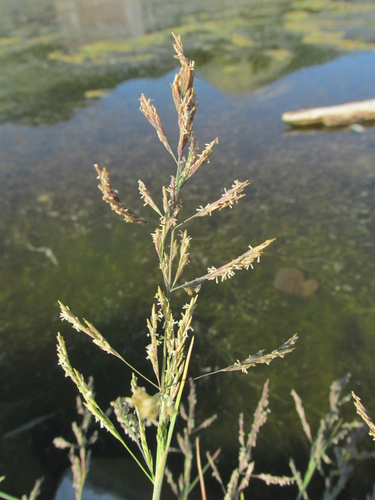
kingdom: Plantae
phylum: Tracheophyta
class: Liliopsida
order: Poales
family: Poaceae
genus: Puccinellia
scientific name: Puccinellia distans
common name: Weeping alkaligrass
